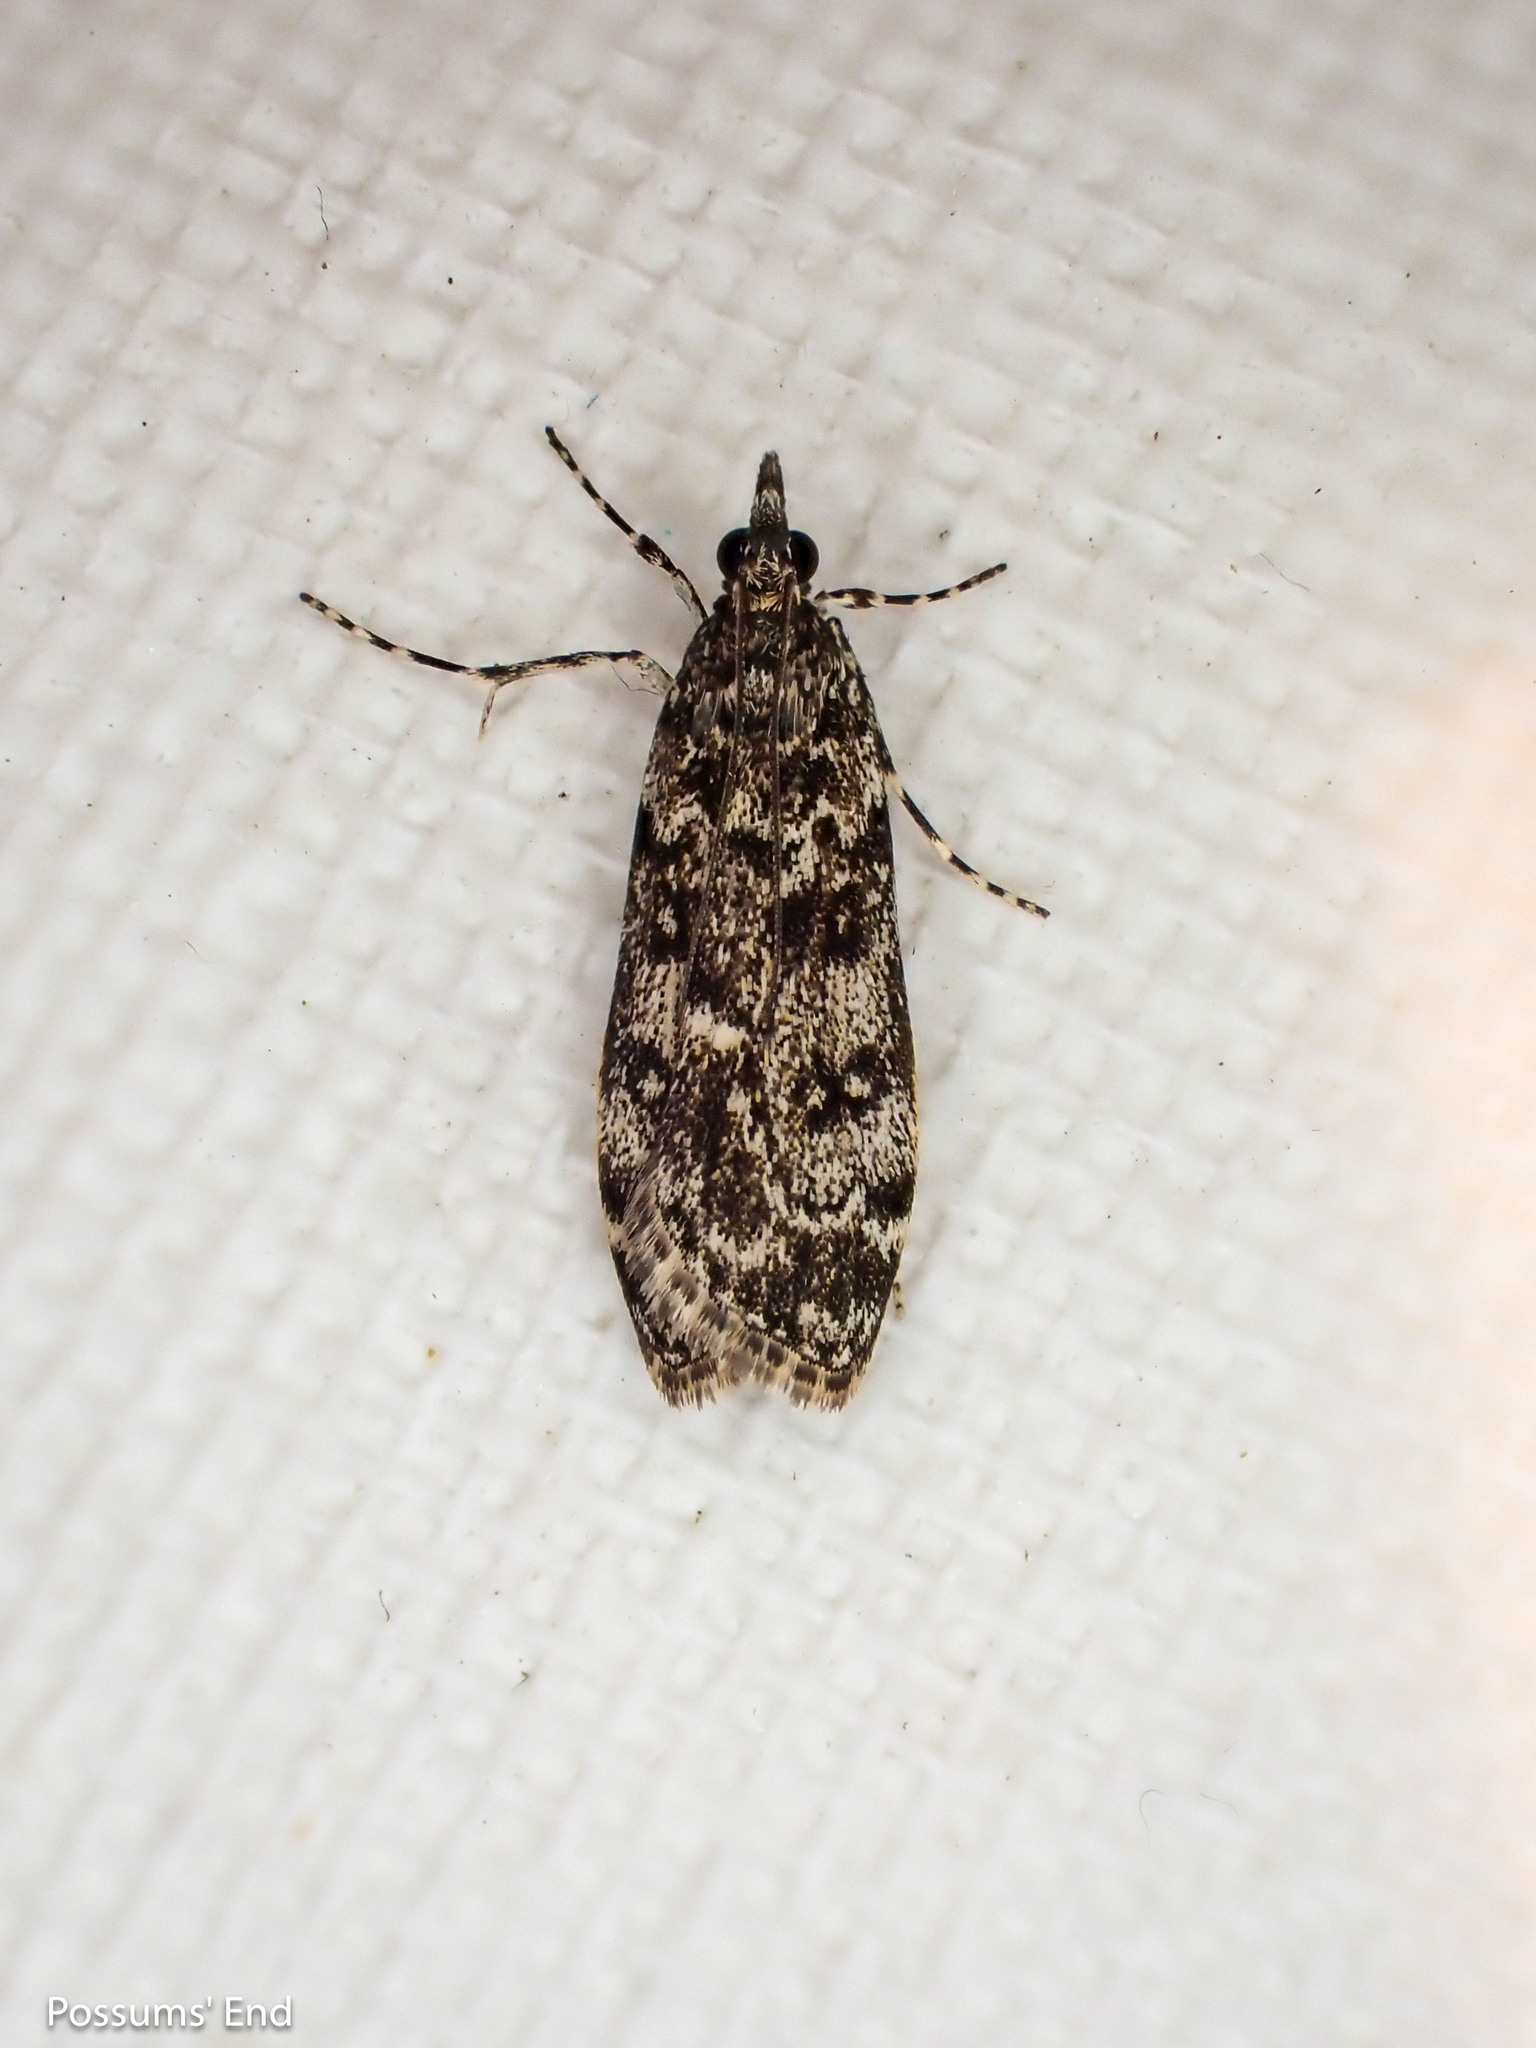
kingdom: Animalia
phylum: Arthropoda
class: Insecta
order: Lepidoptera
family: Crambidae
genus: Eudonia
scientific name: Eudonia philerga
